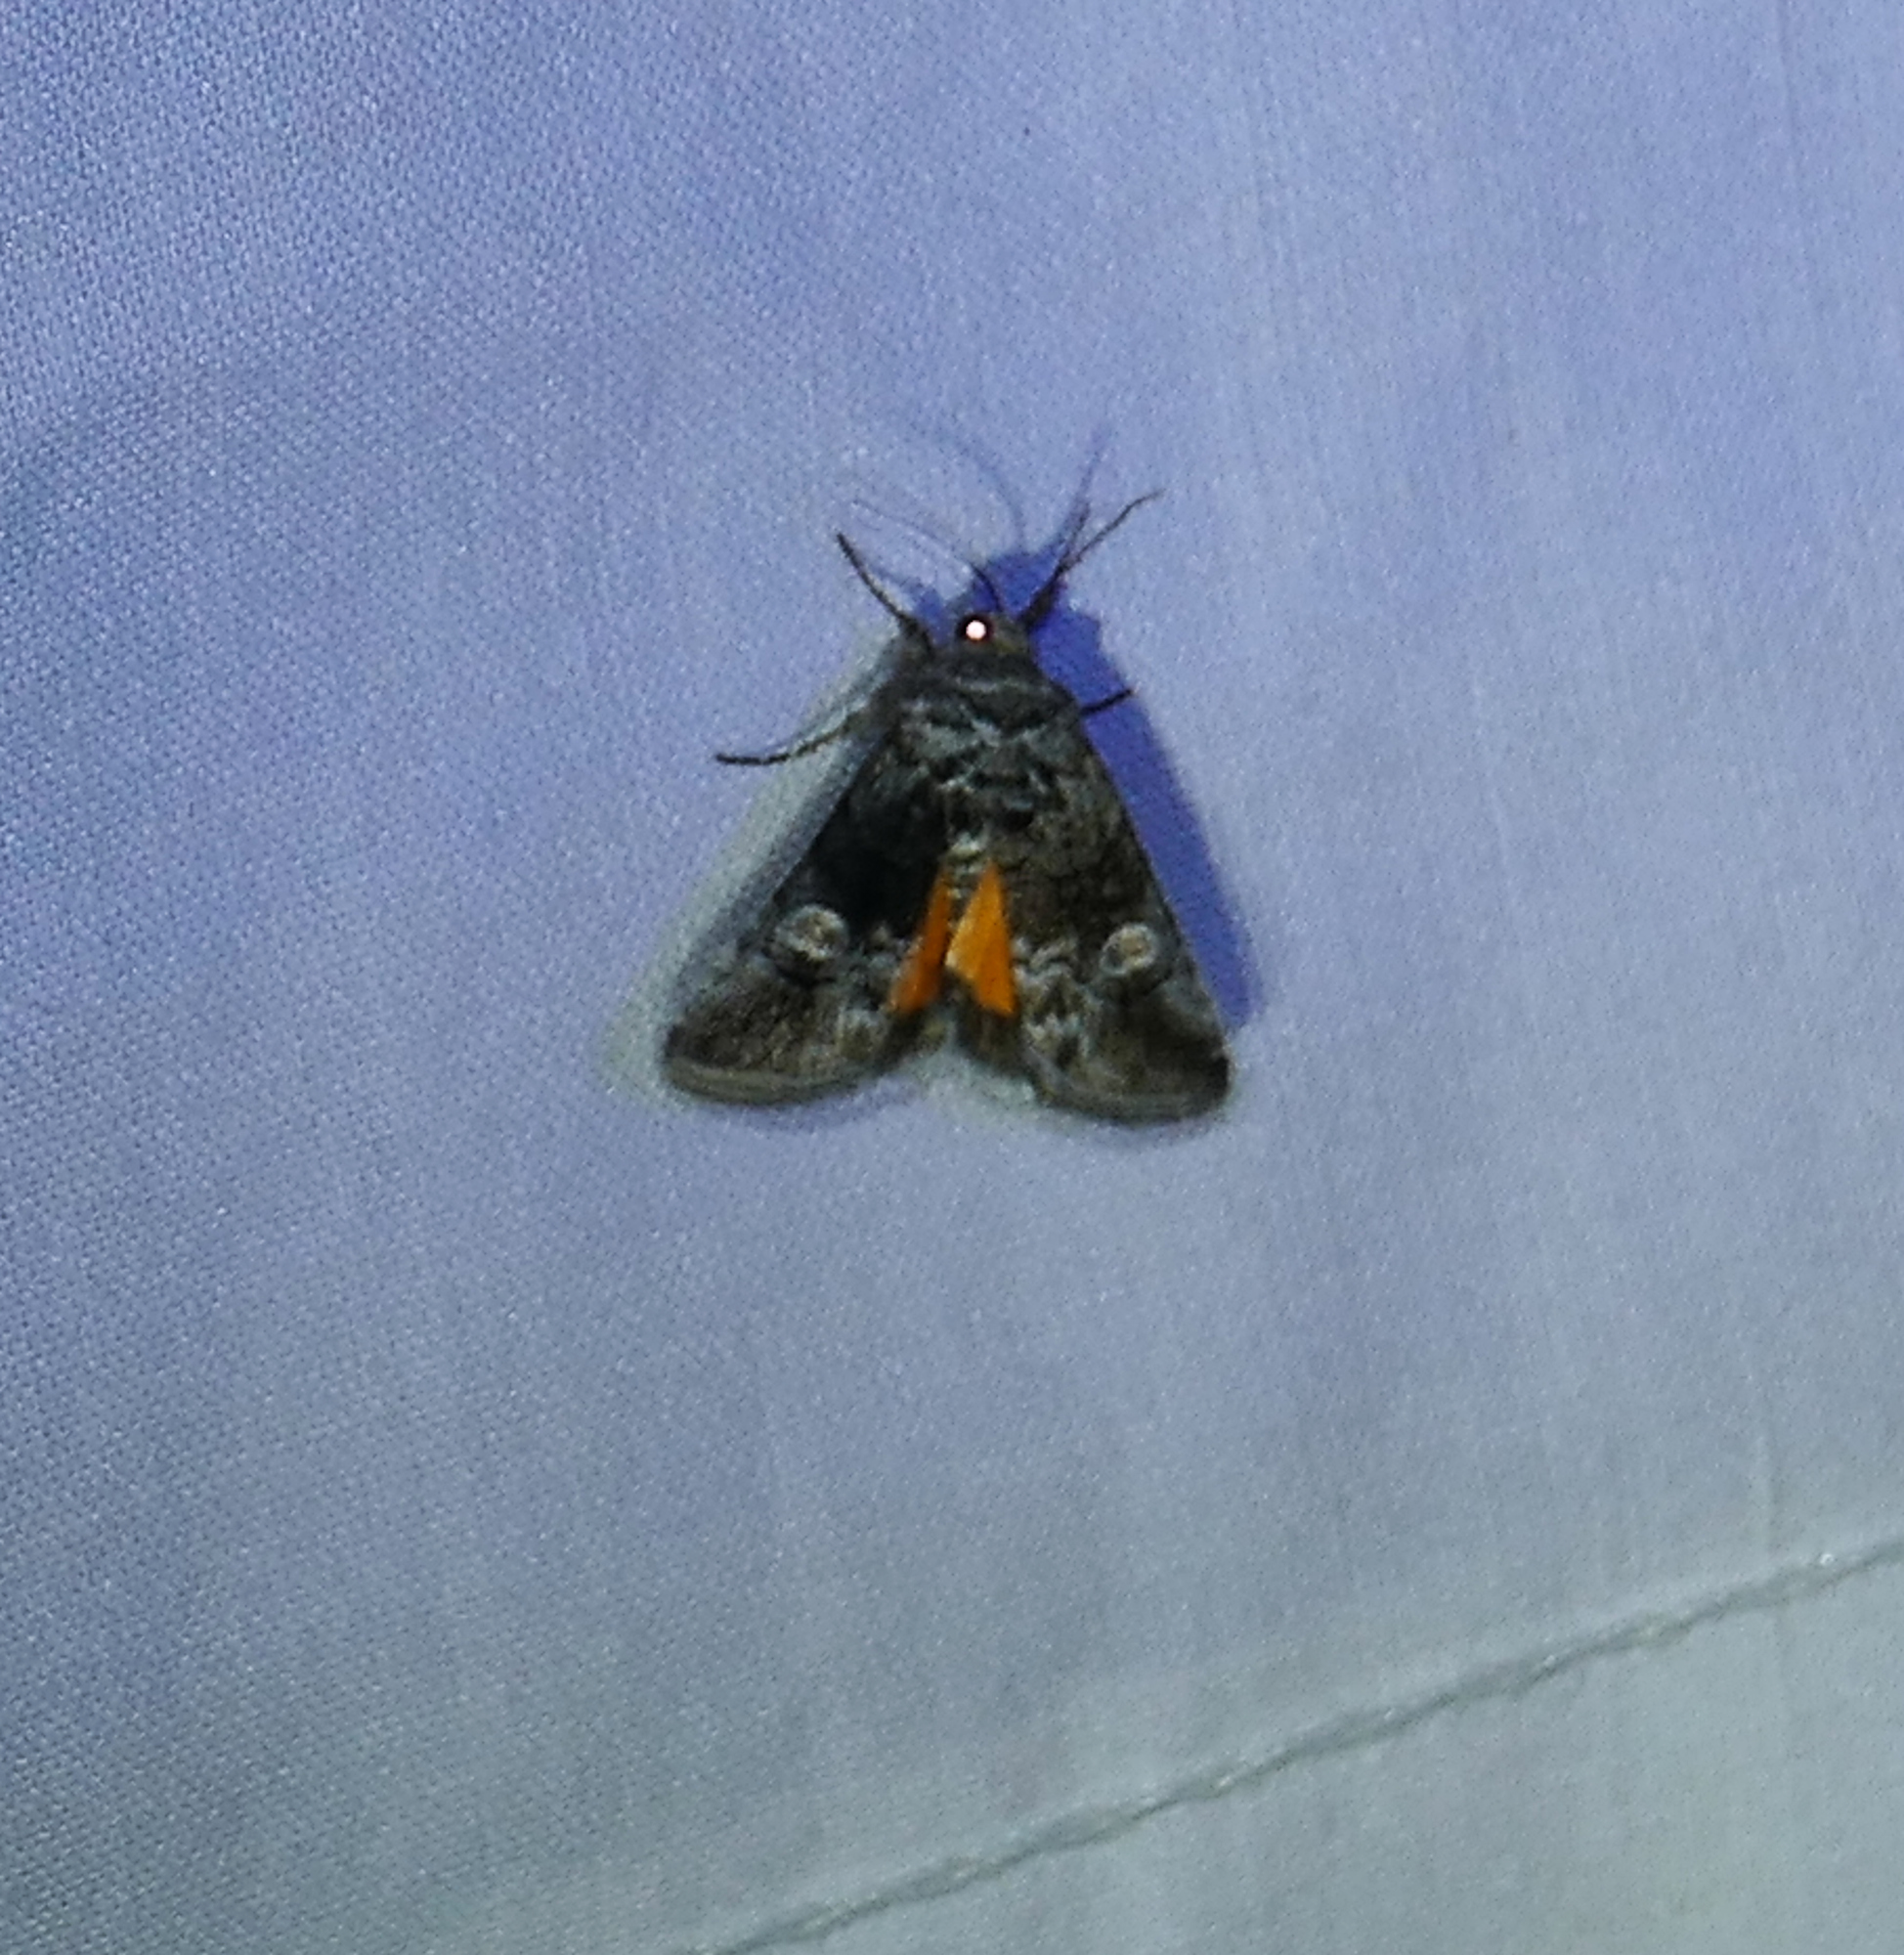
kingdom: Animalia
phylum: Arthropoda
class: Insecta
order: Lepidoptera
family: Noctuidae
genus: Copanarta
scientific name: Copanarta aurea
